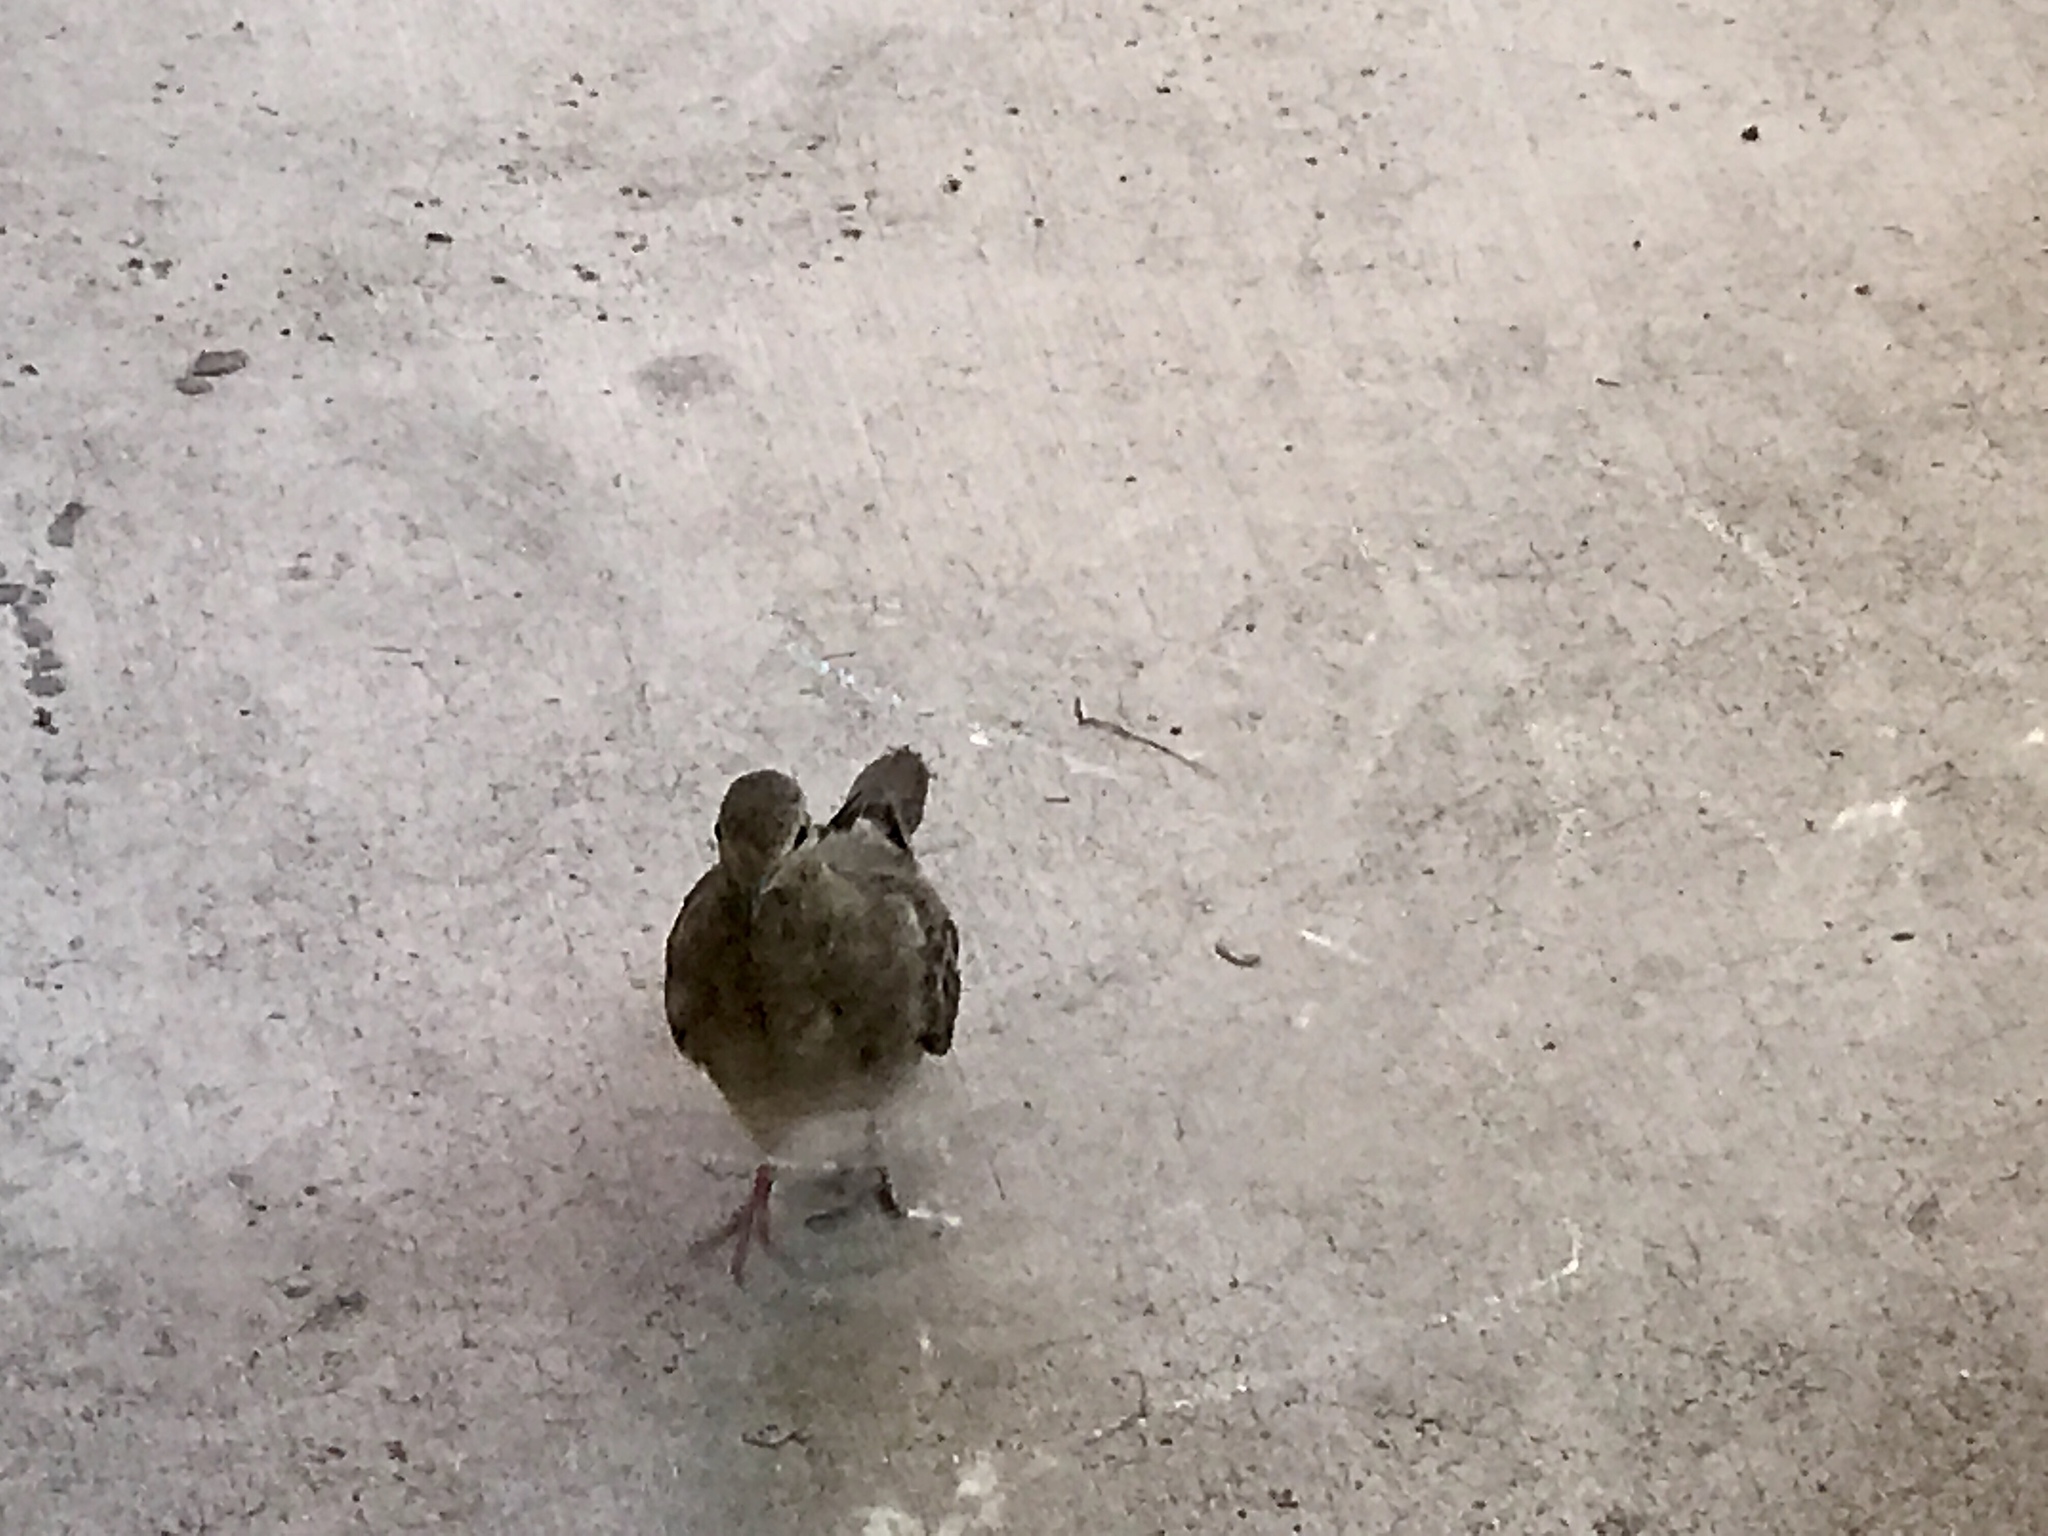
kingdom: Animalia
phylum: Chordata
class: Aves
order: Columbiformes
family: Columbidae
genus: Zenaida
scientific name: Zenaida macroura
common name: Mourning dove
